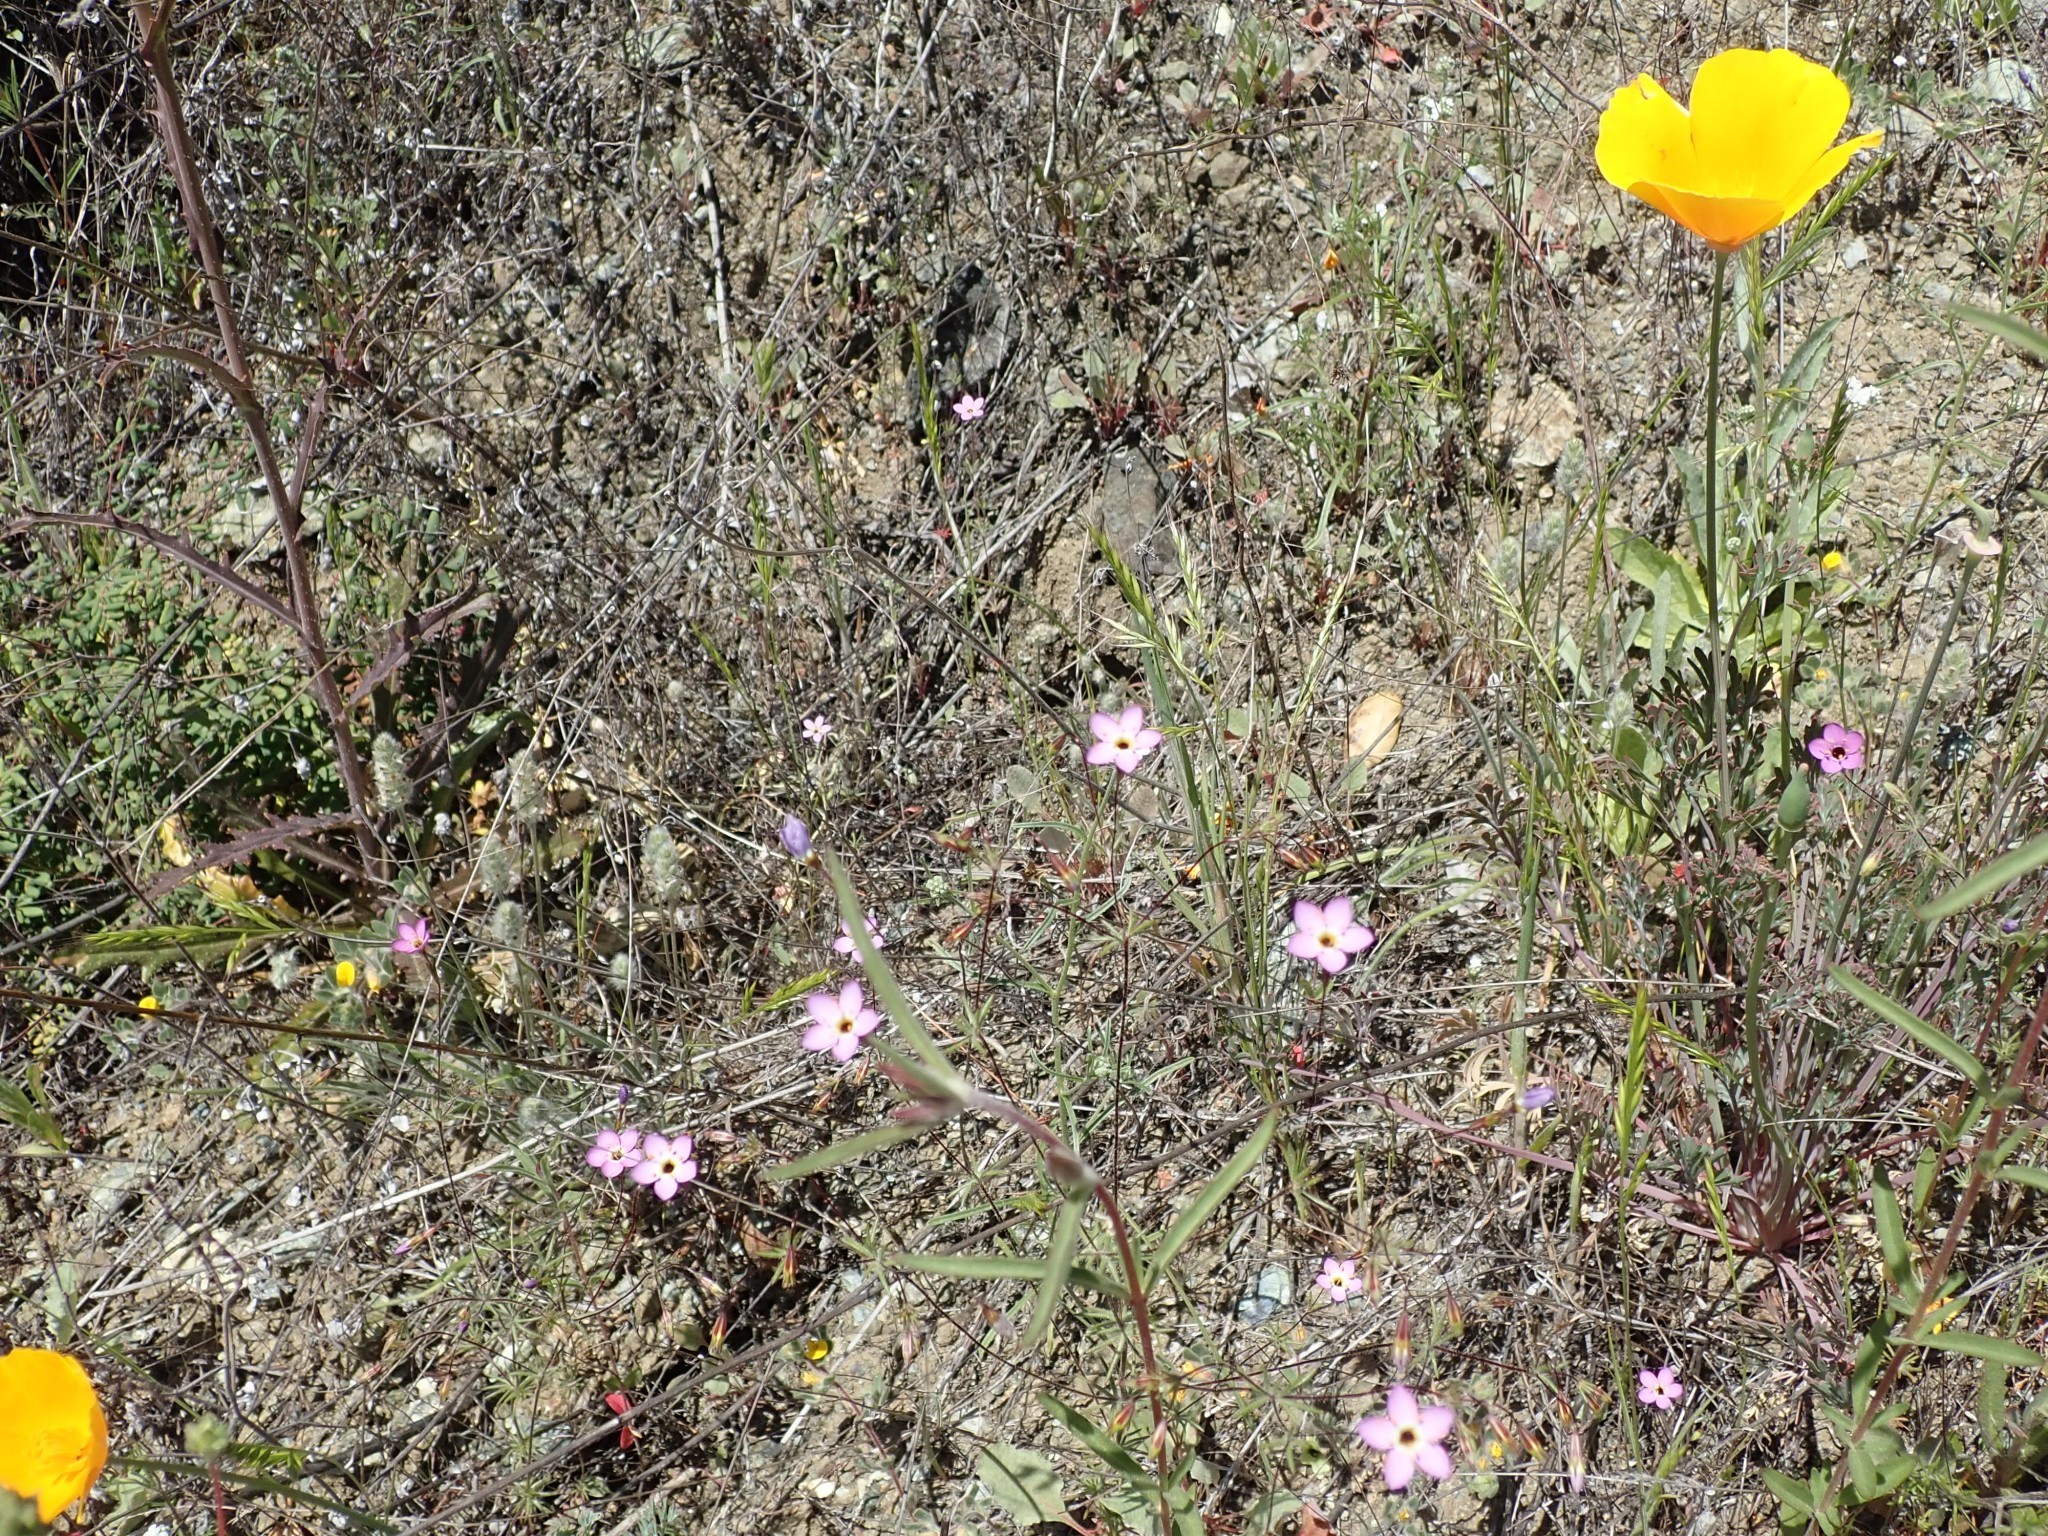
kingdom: Plantae
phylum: Tracheophyta
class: Magnoliopsida
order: Ericales
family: Polemoniaceae
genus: Leptosiphon
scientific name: Leptosiphon ambiguus
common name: Serpentine linanthus
